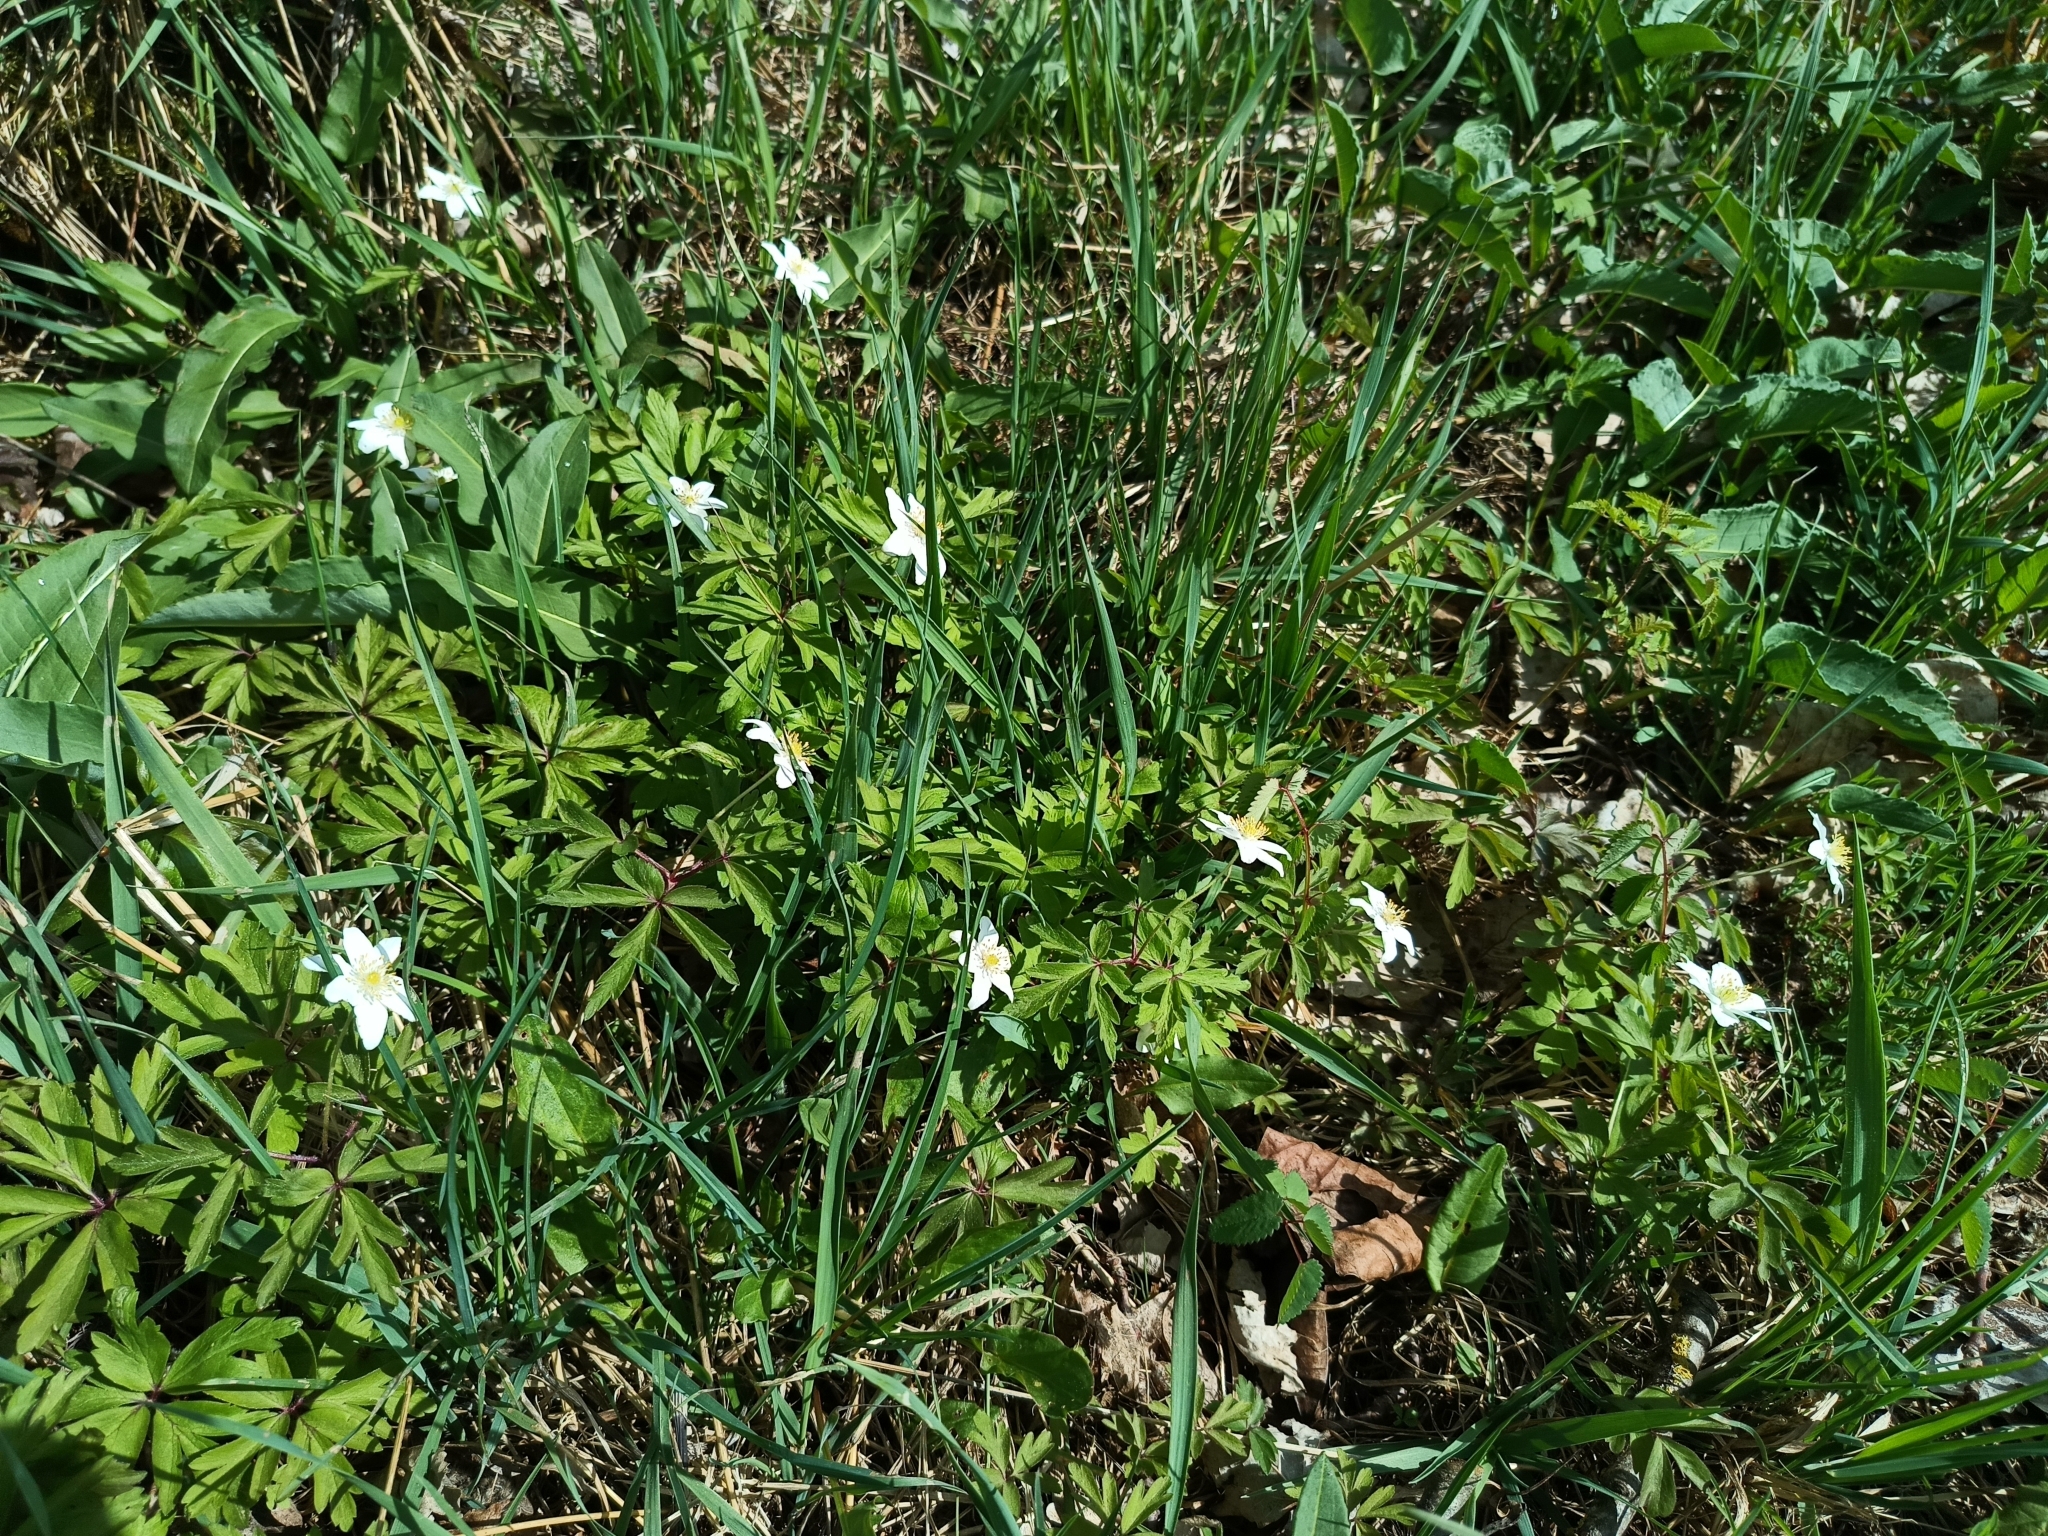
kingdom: Plantae
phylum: Tracheophyta
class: Magnoliopsida
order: Ranunculales
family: Ranunculaceae
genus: Anemone
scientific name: Anemone nemorosa
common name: Wood anemone
